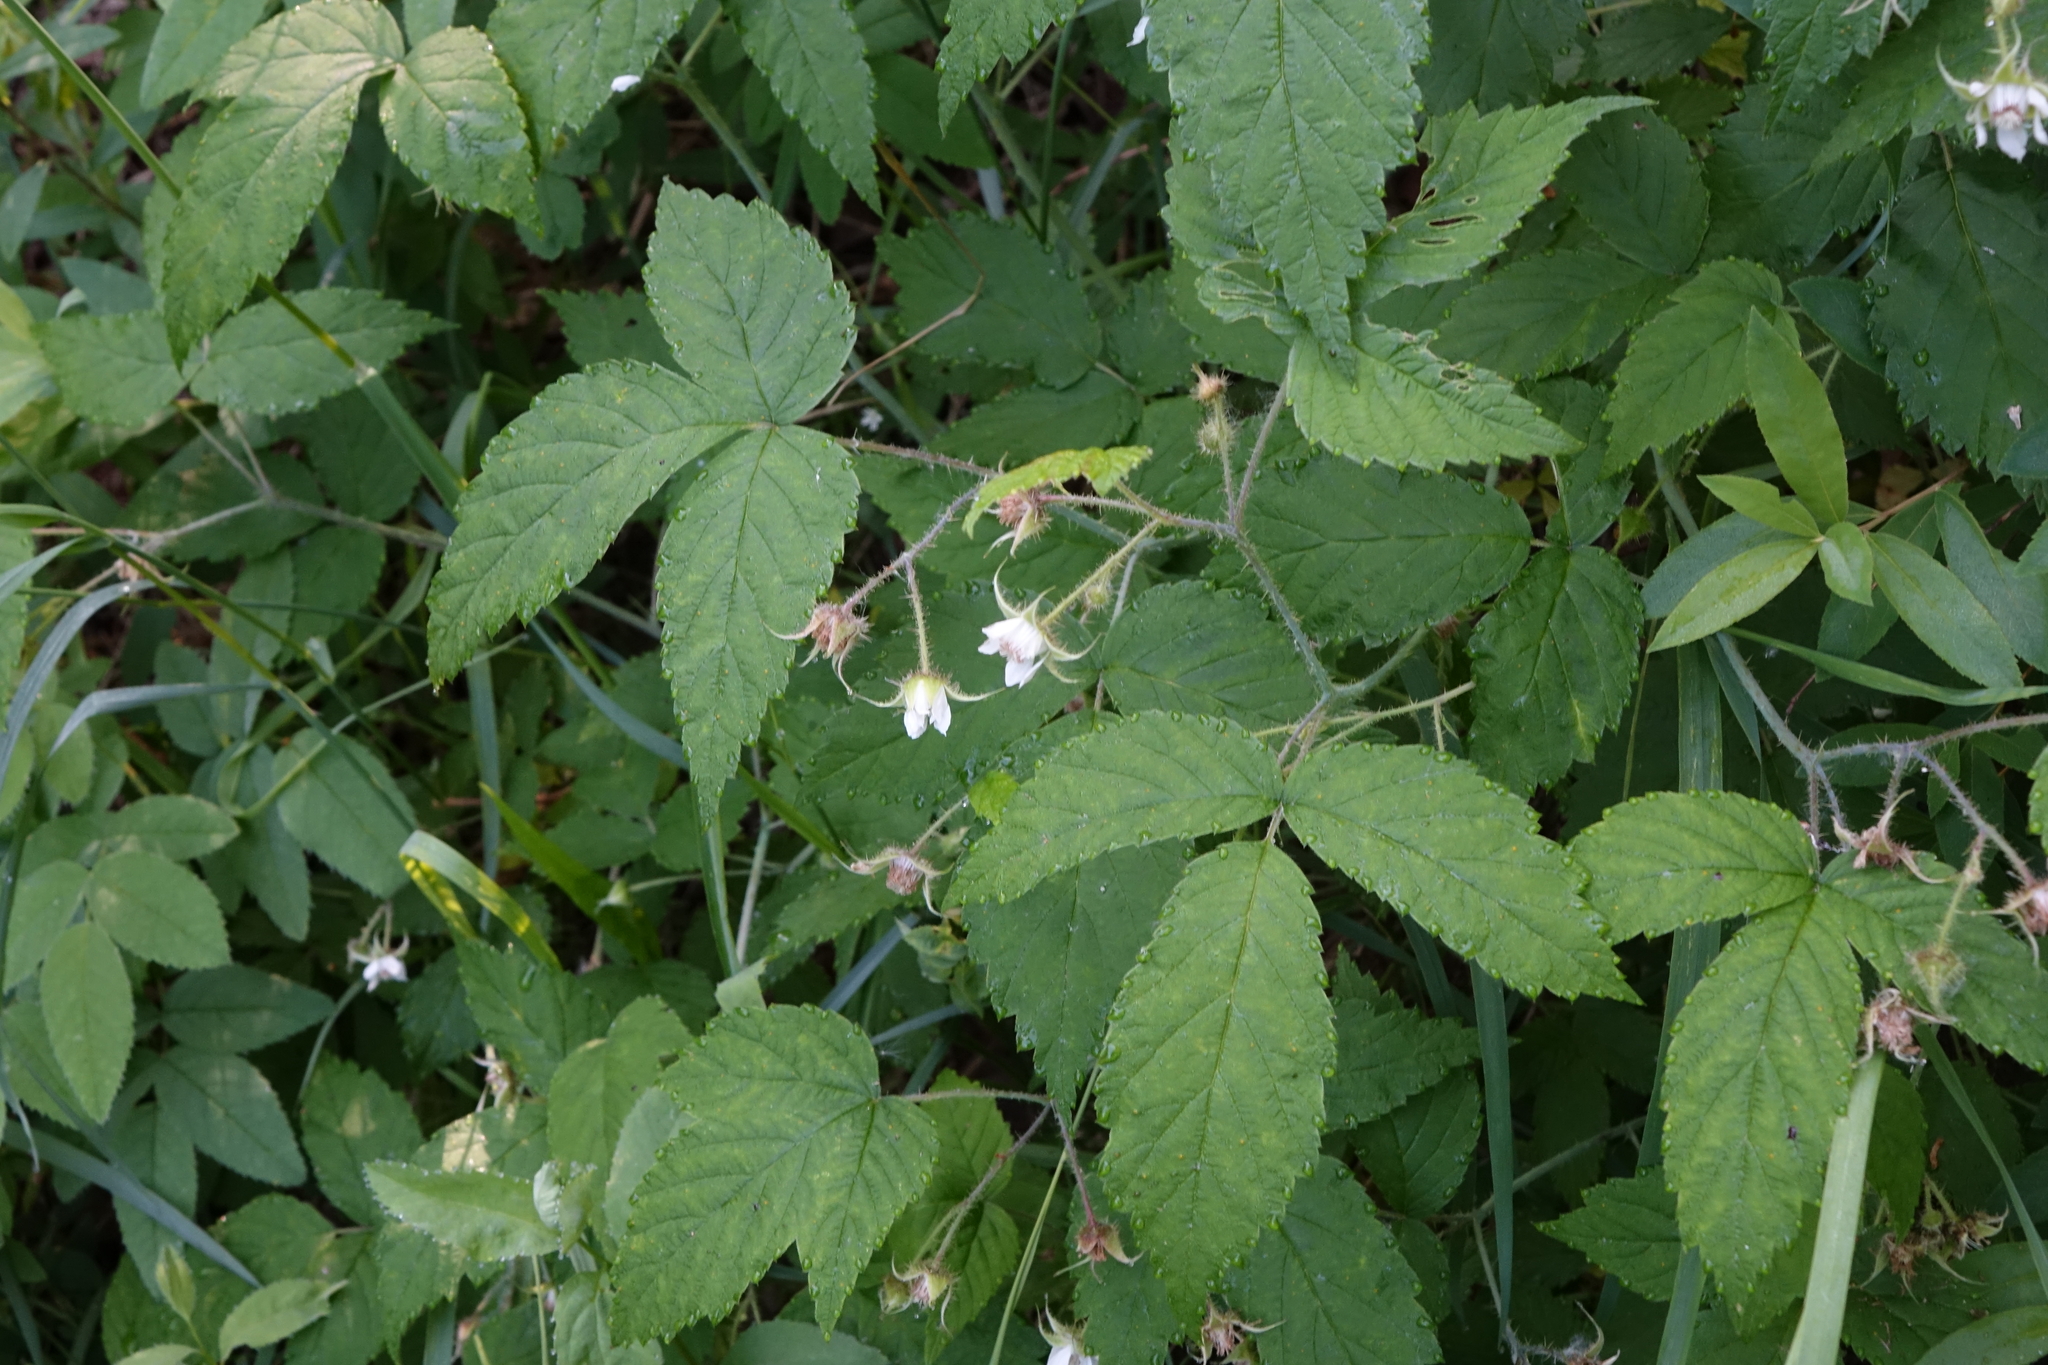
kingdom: Plantae
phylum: Tracheophyta
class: Magnoliopsida
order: Rosales
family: Rosaceae
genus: Rubus
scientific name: Rubus sachalinensis
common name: Red raspberry
